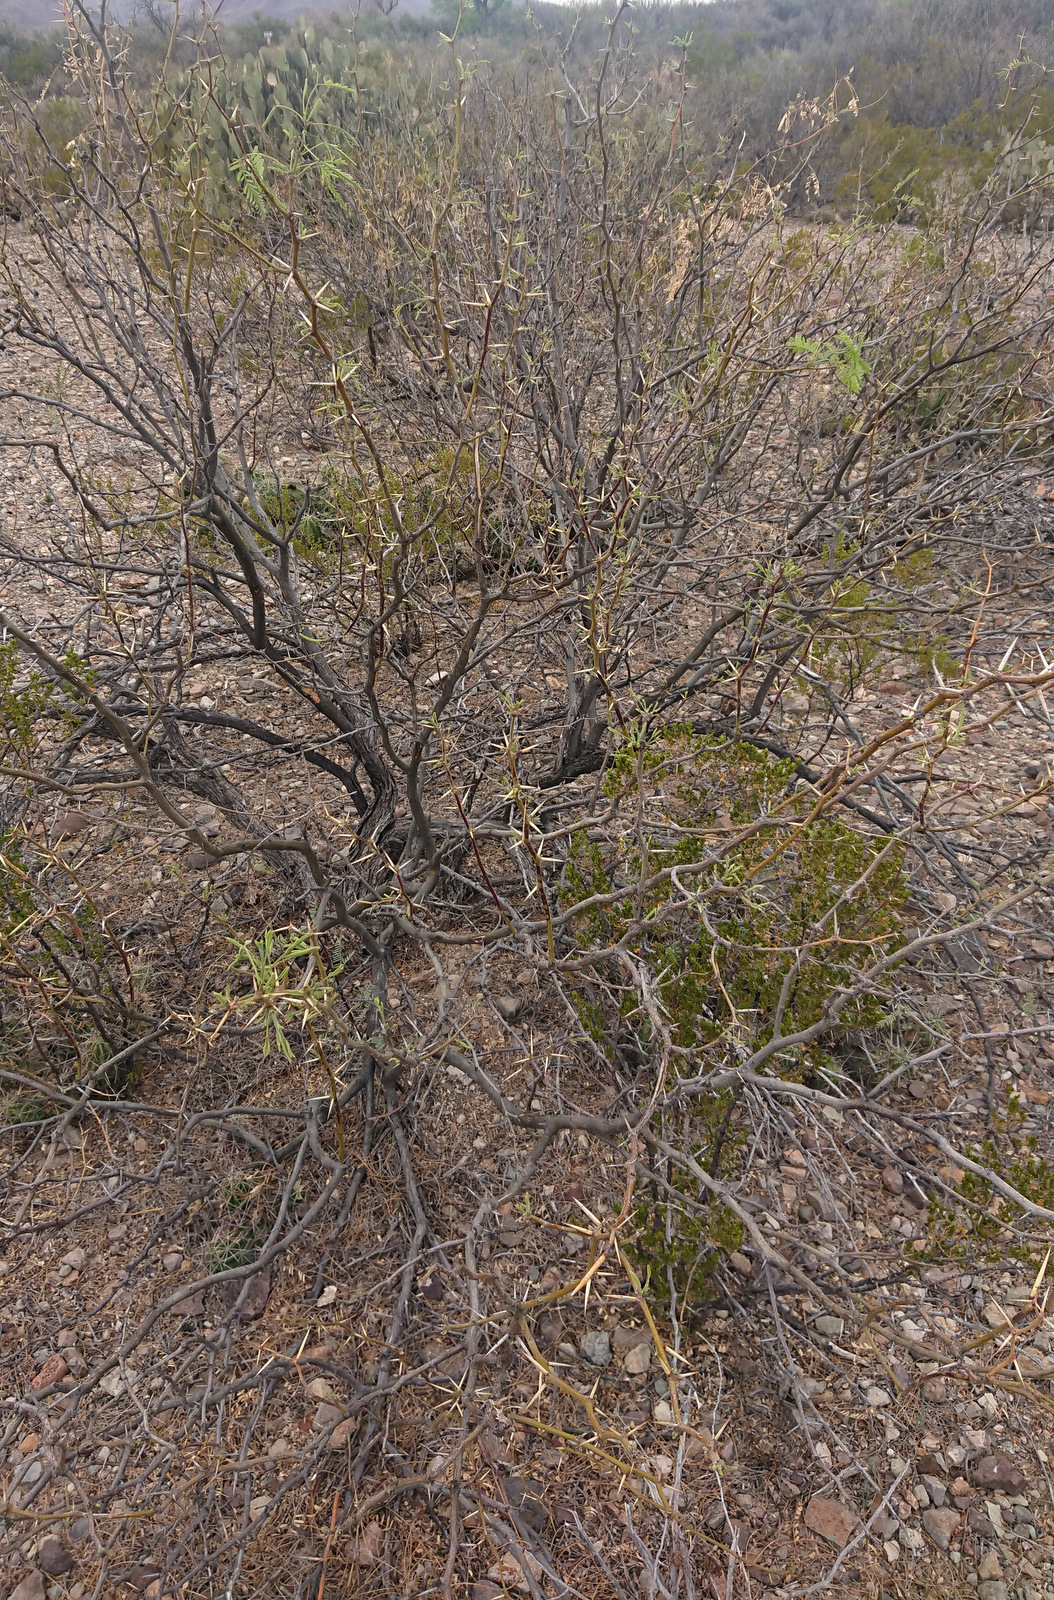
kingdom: Plantae
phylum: Tracheophyta
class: Magnoliopsida
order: Fabales
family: Fabaceae
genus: Prosopis
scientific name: Prosopis pubescens
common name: Screw-bean
